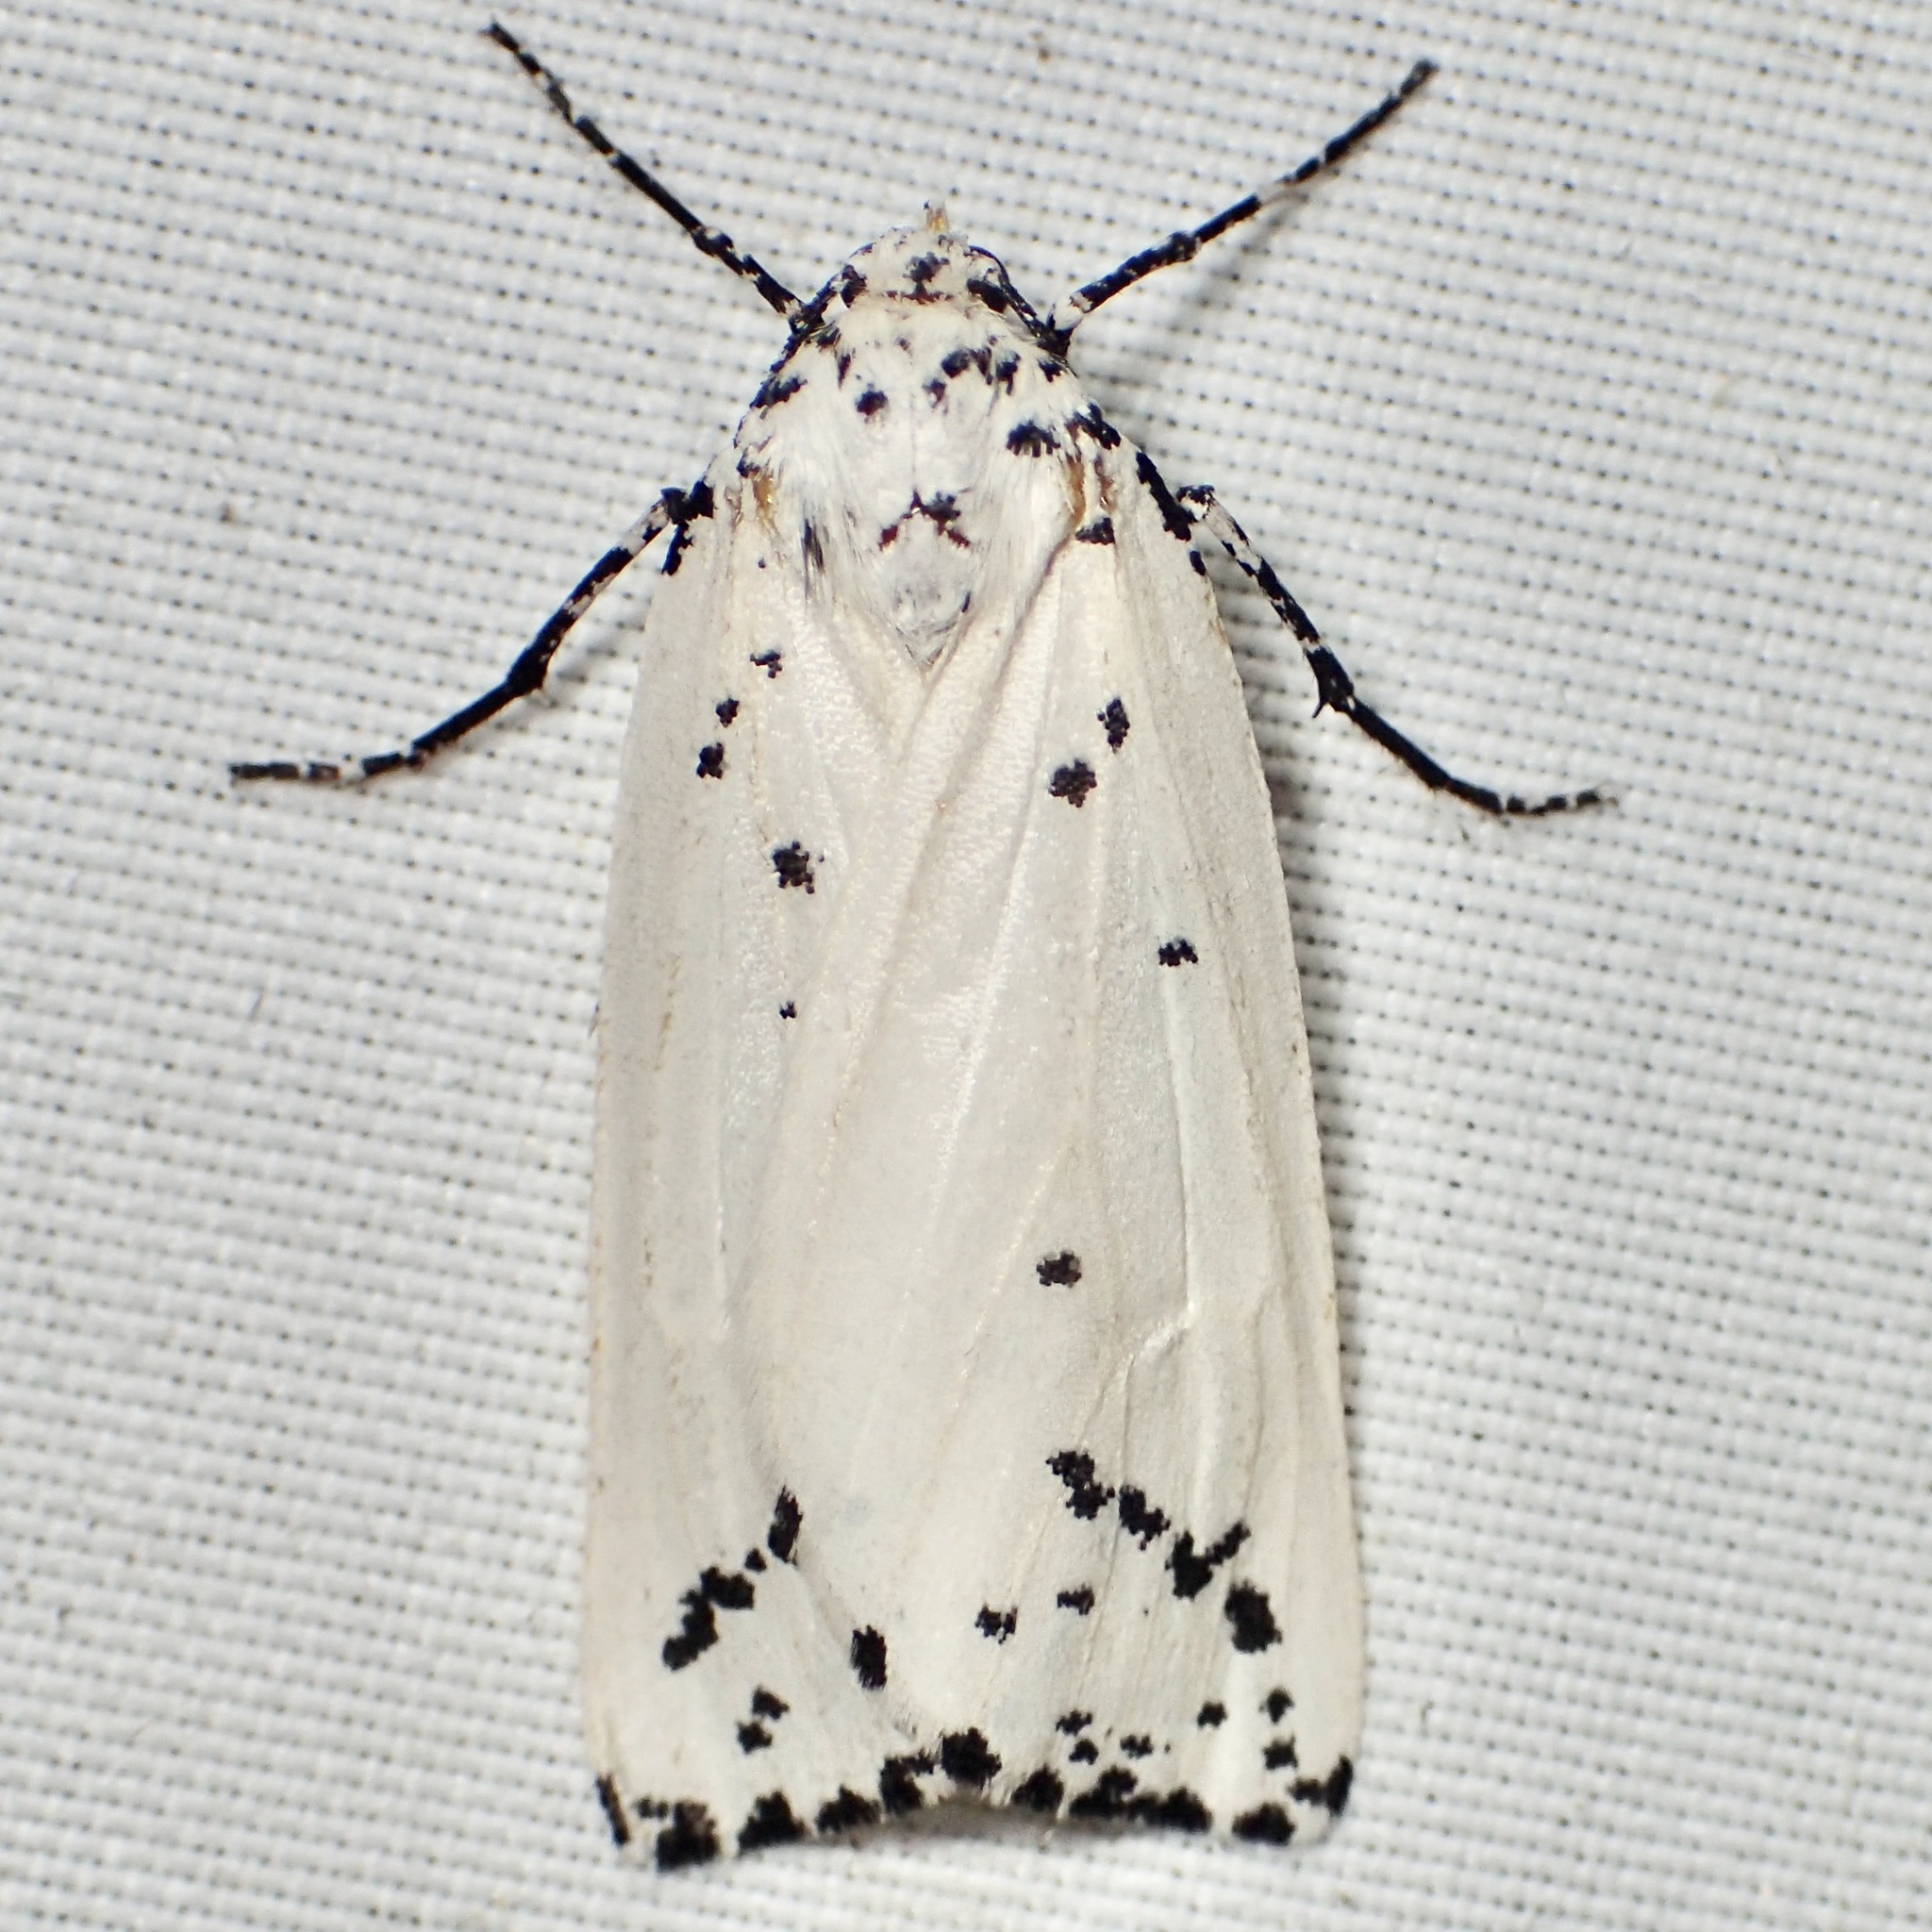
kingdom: Animalia
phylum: Arthropoda
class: Insecta
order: Lepidoptera
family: Geometridae
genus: Eucaterva
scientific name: Eucaterva variaria
